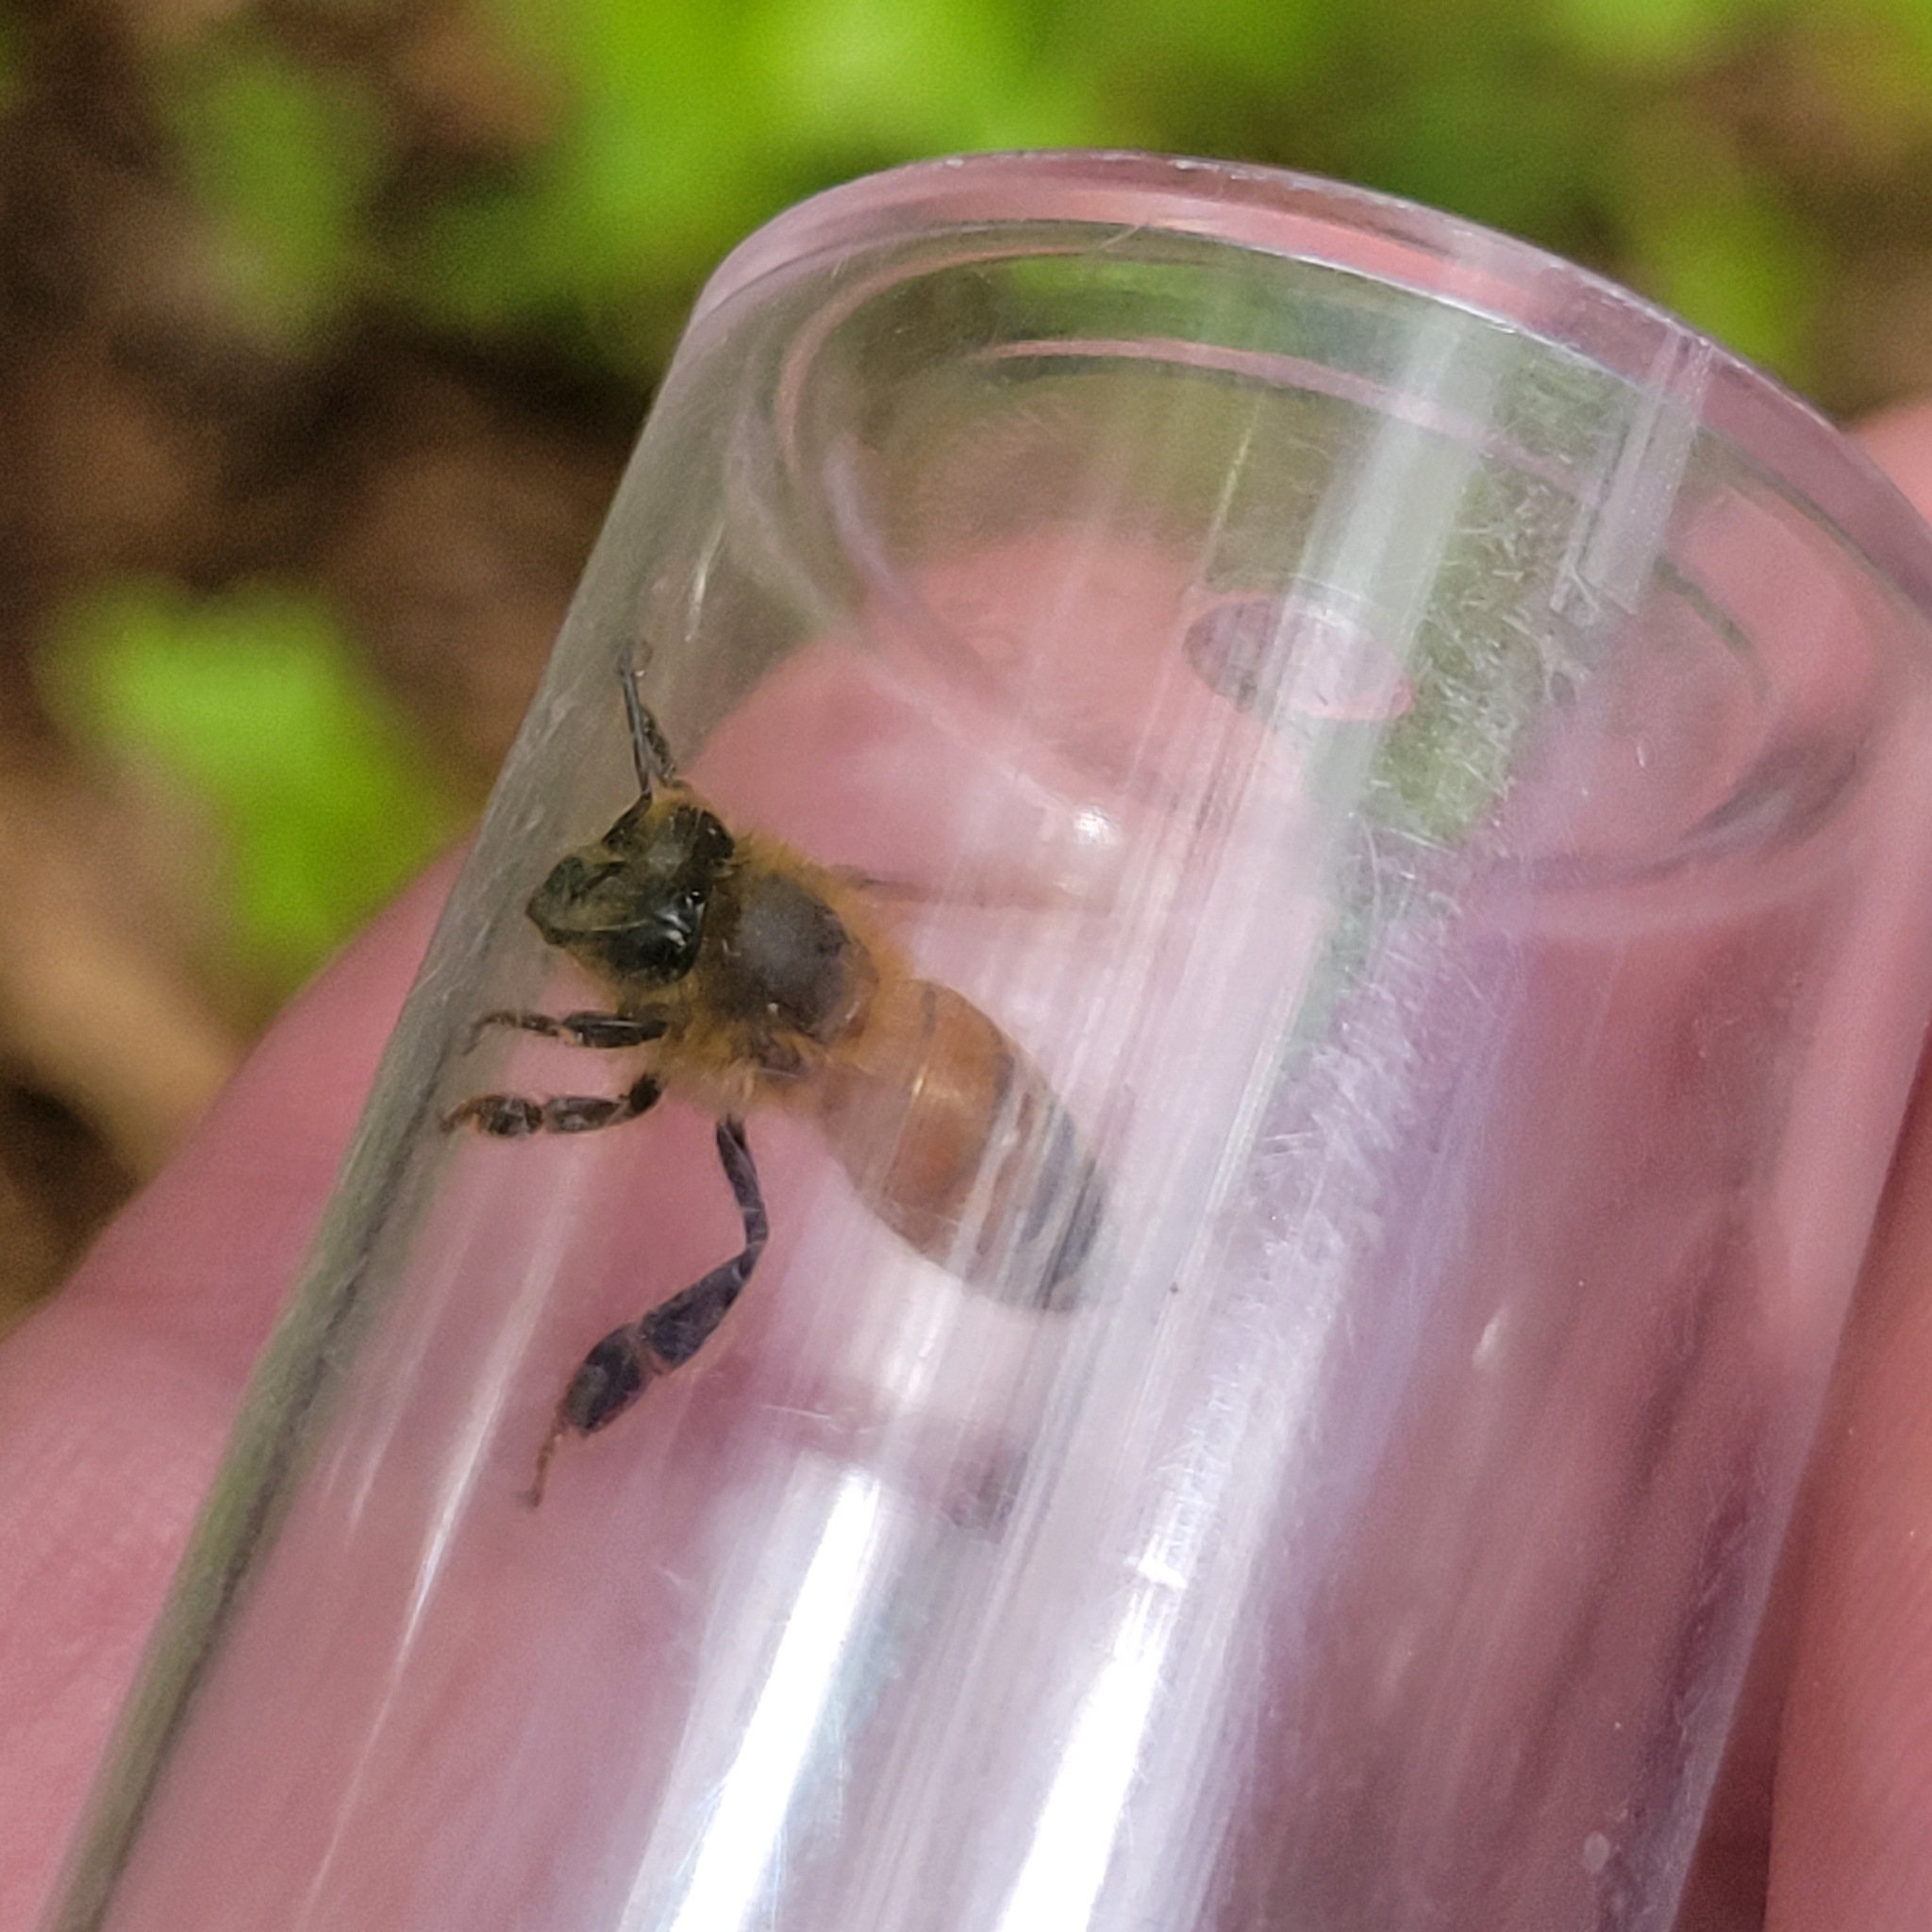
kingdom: Animalia
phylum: Arthropoda
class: Insecta
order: Hymenoptera
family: Apidae
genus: Apis
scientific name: Apis mellifera
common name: Honey bee
